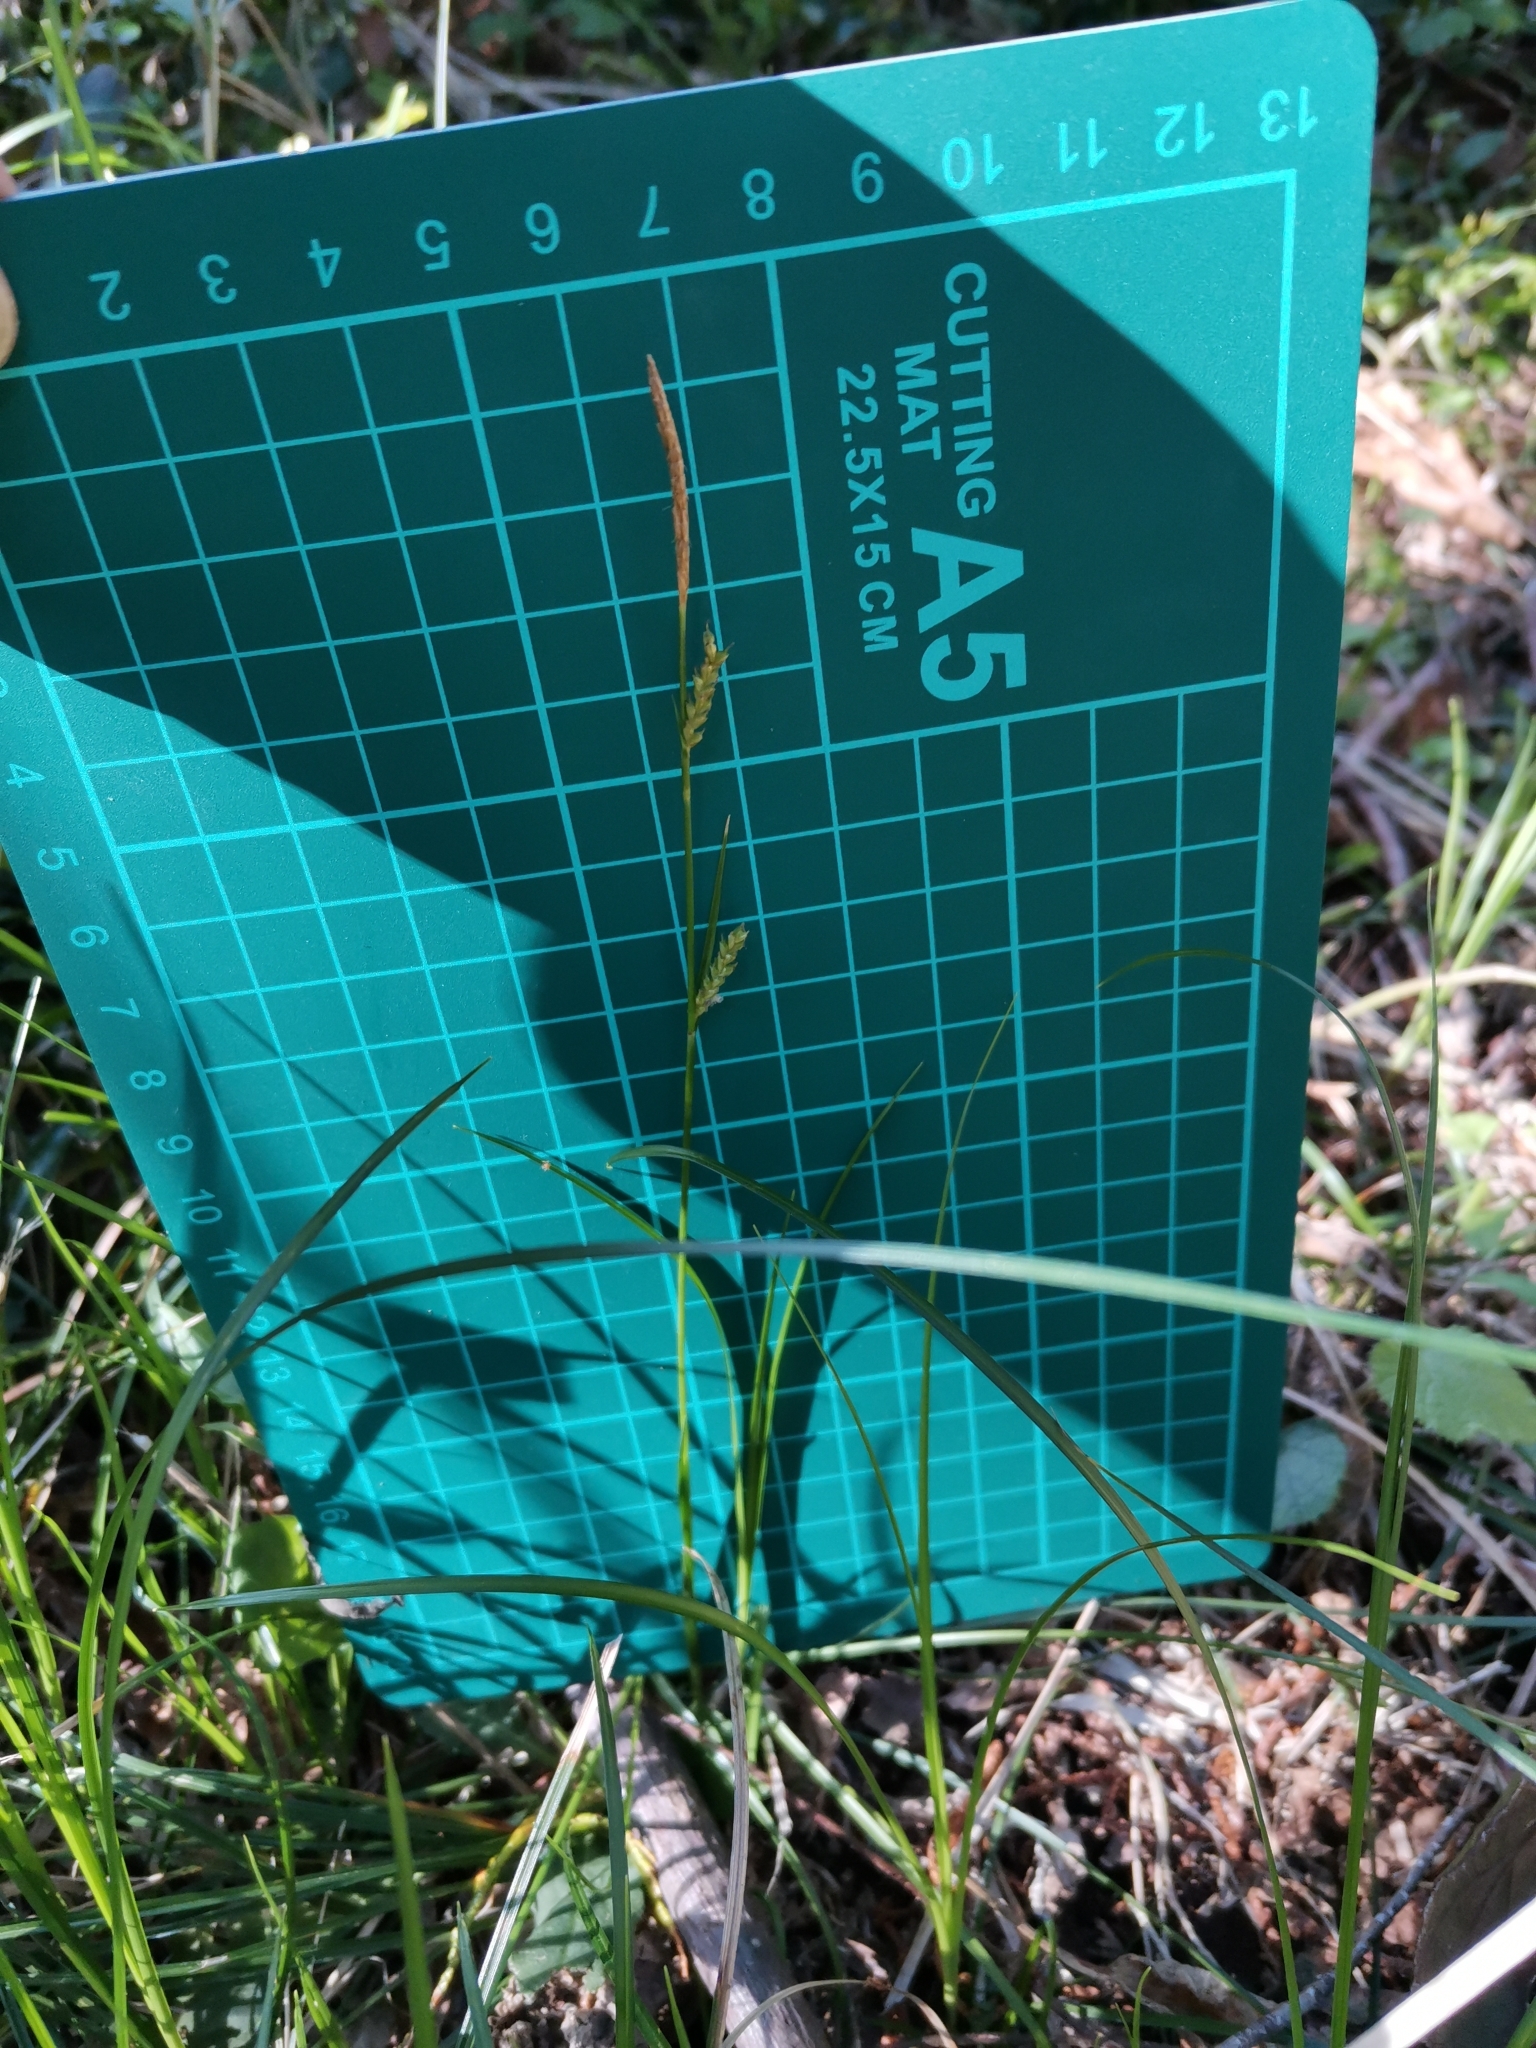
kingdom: Plantae
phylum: Tracheophyta
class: Liliopsida
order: Poales
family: Cyperaceae
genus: Carex
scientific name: Carex pisiformis
